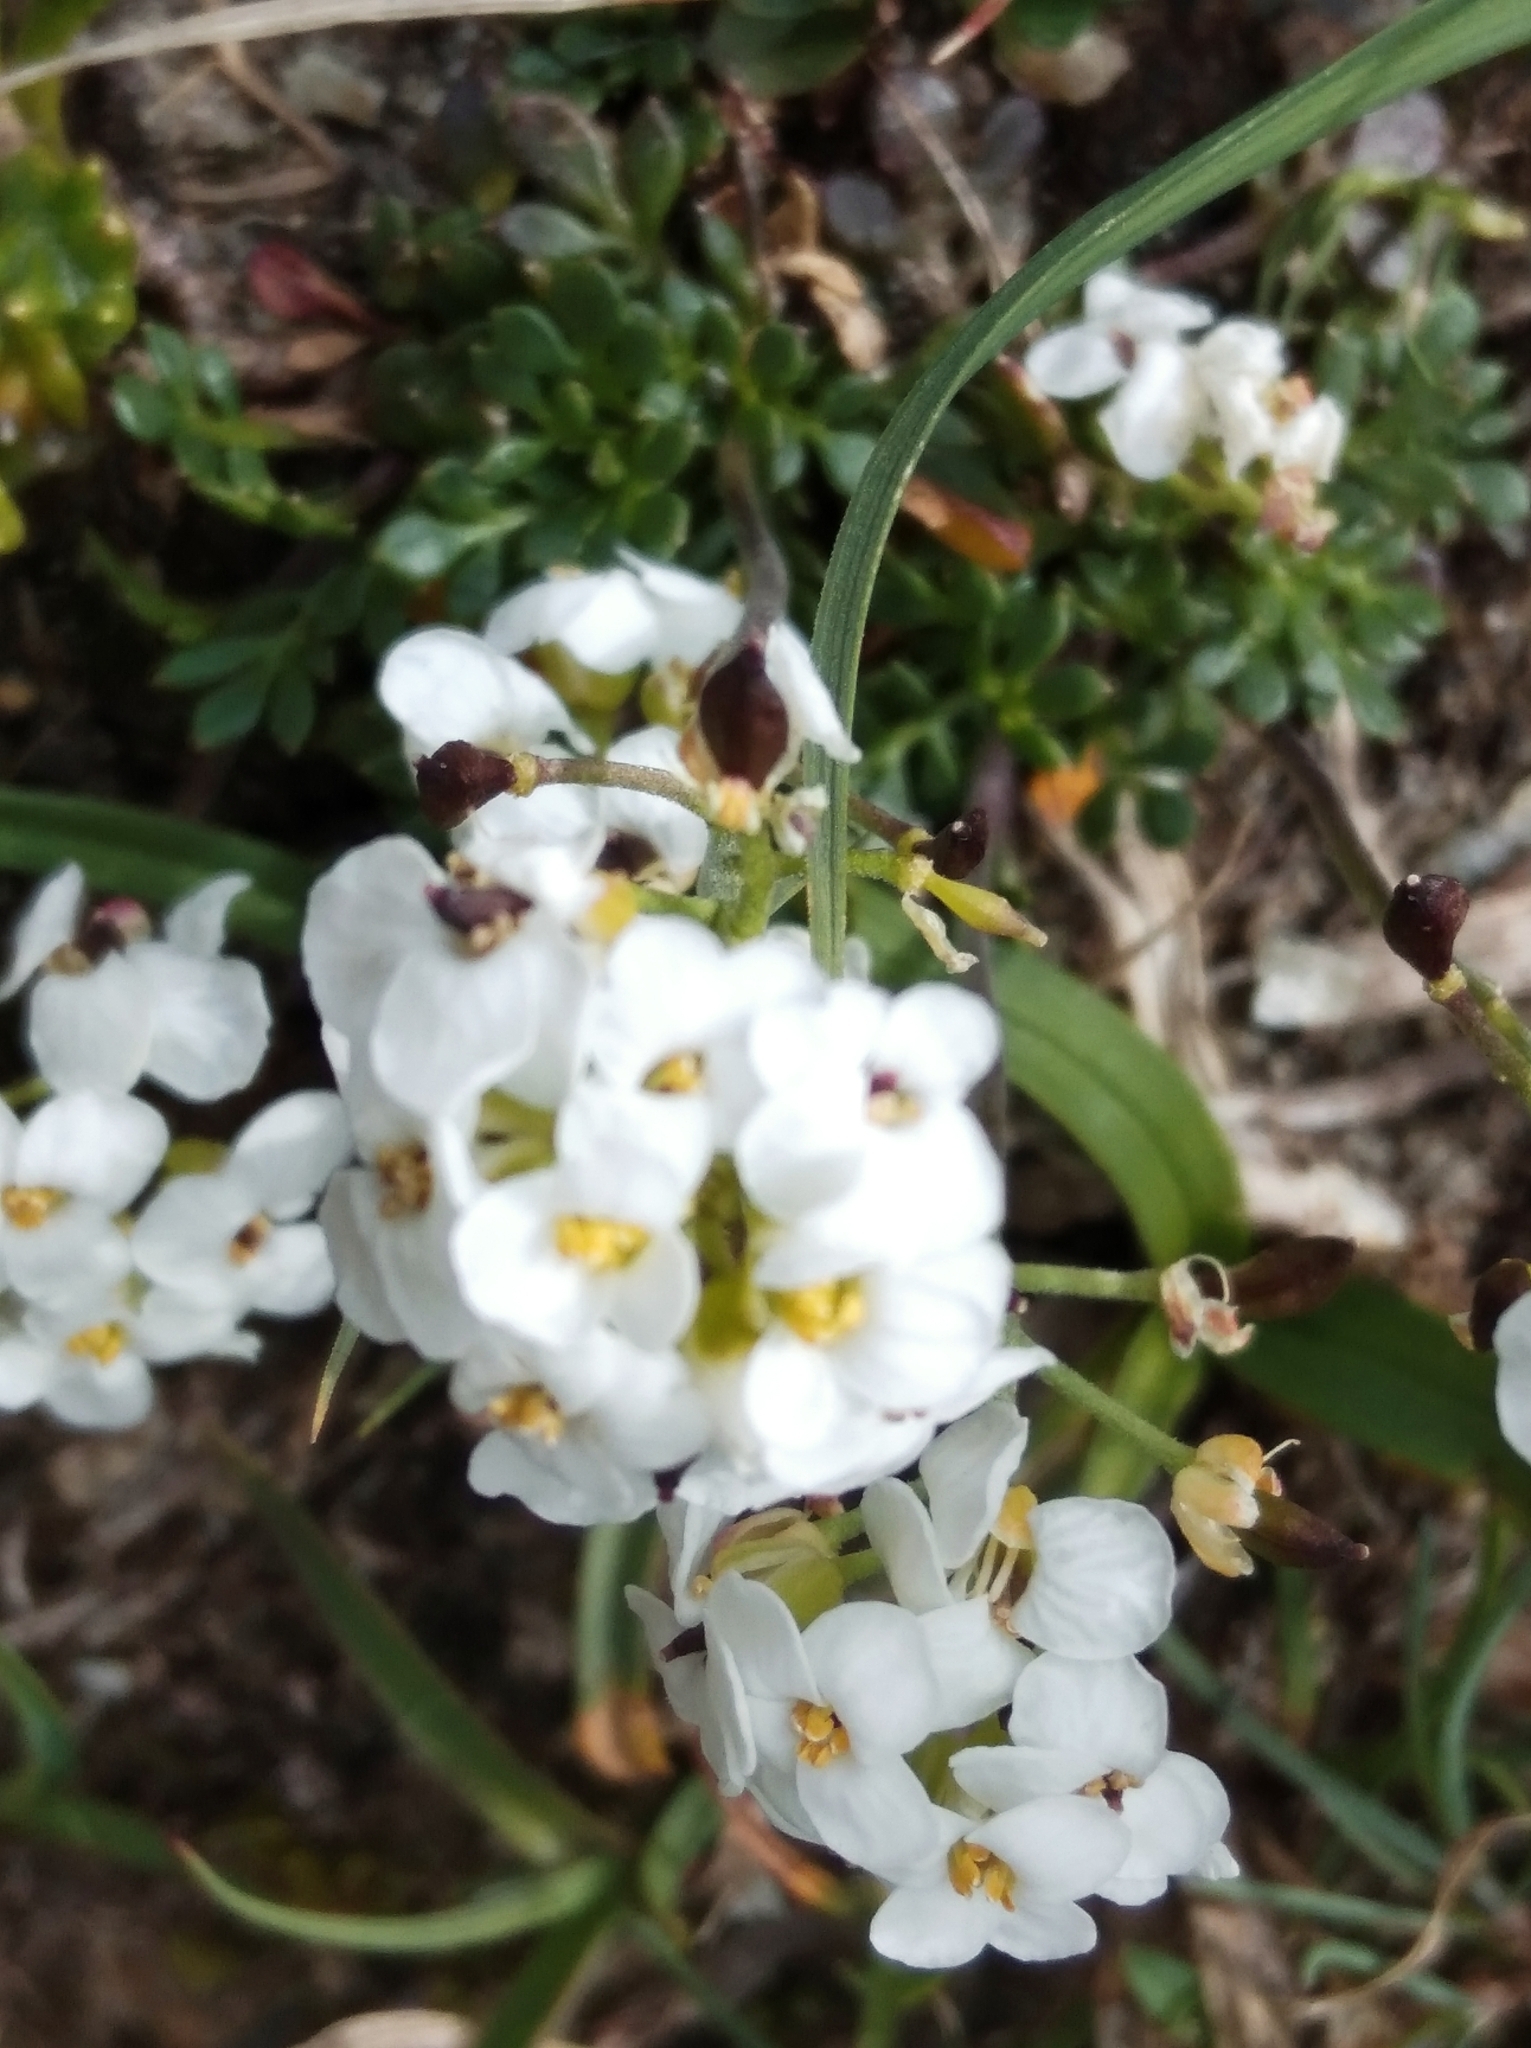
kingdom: Plantae
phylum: Tracheophyta
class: Magnoliopsida
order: Brassicales
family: Brassicaceae
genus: Hornungia
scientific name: Hornungia alpina
